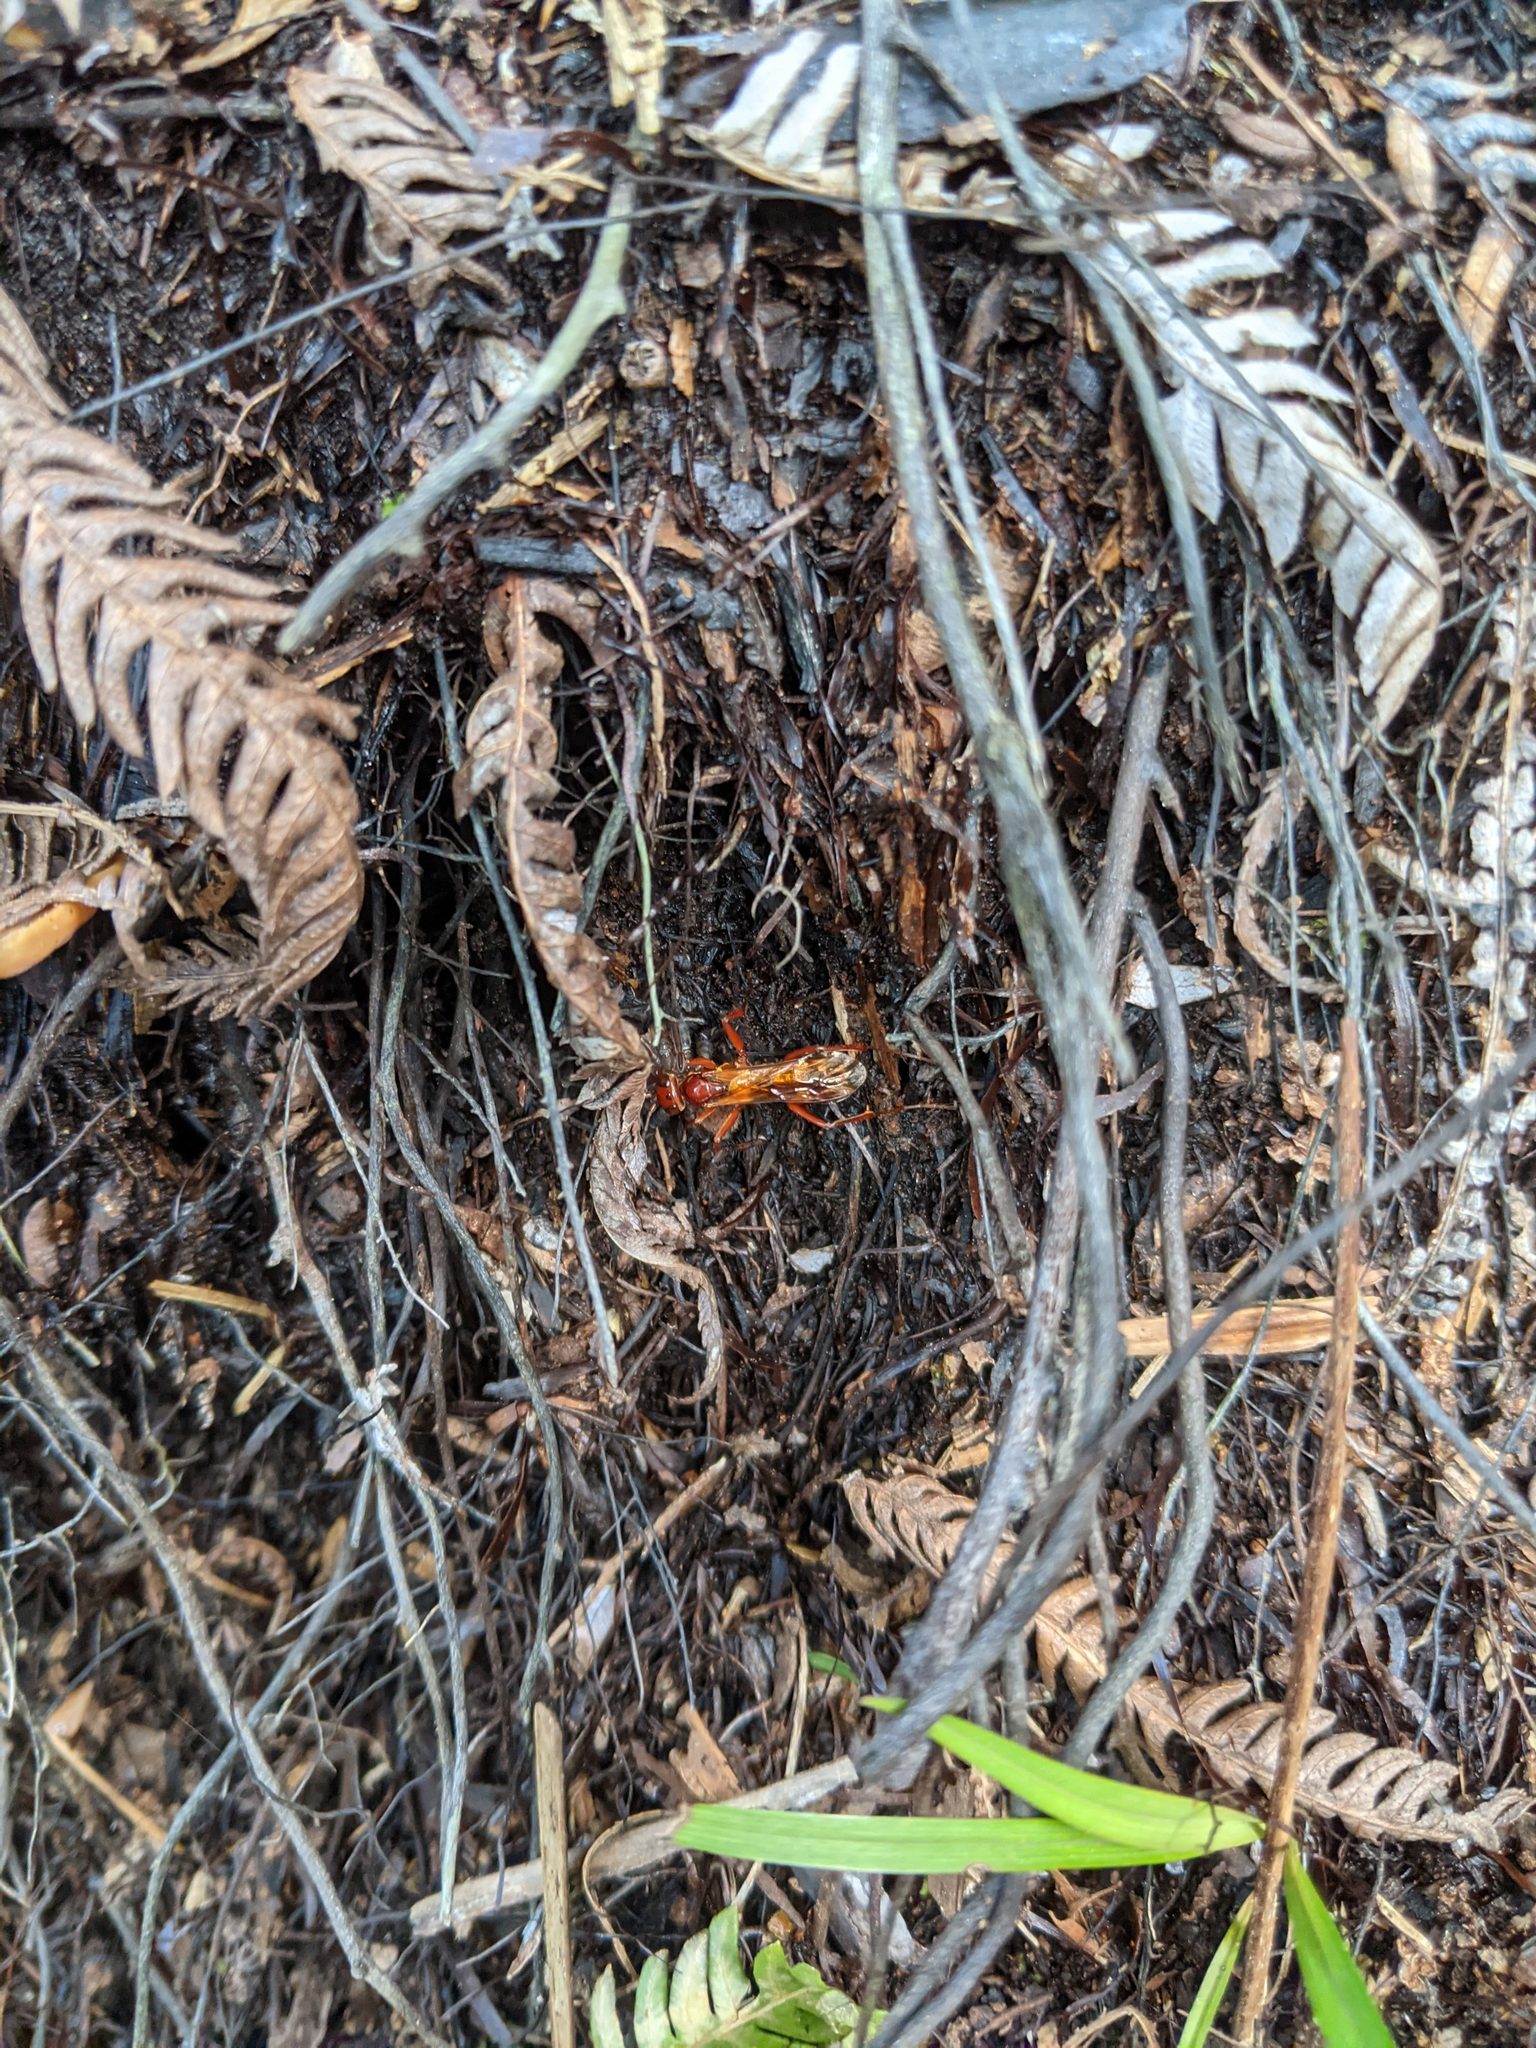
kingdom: Animalia
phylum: Arthropoda
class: Insecta
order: Hymenoptera
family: Pompilidae
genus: Sphictostethus
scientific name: Sphictostethus nitidus
